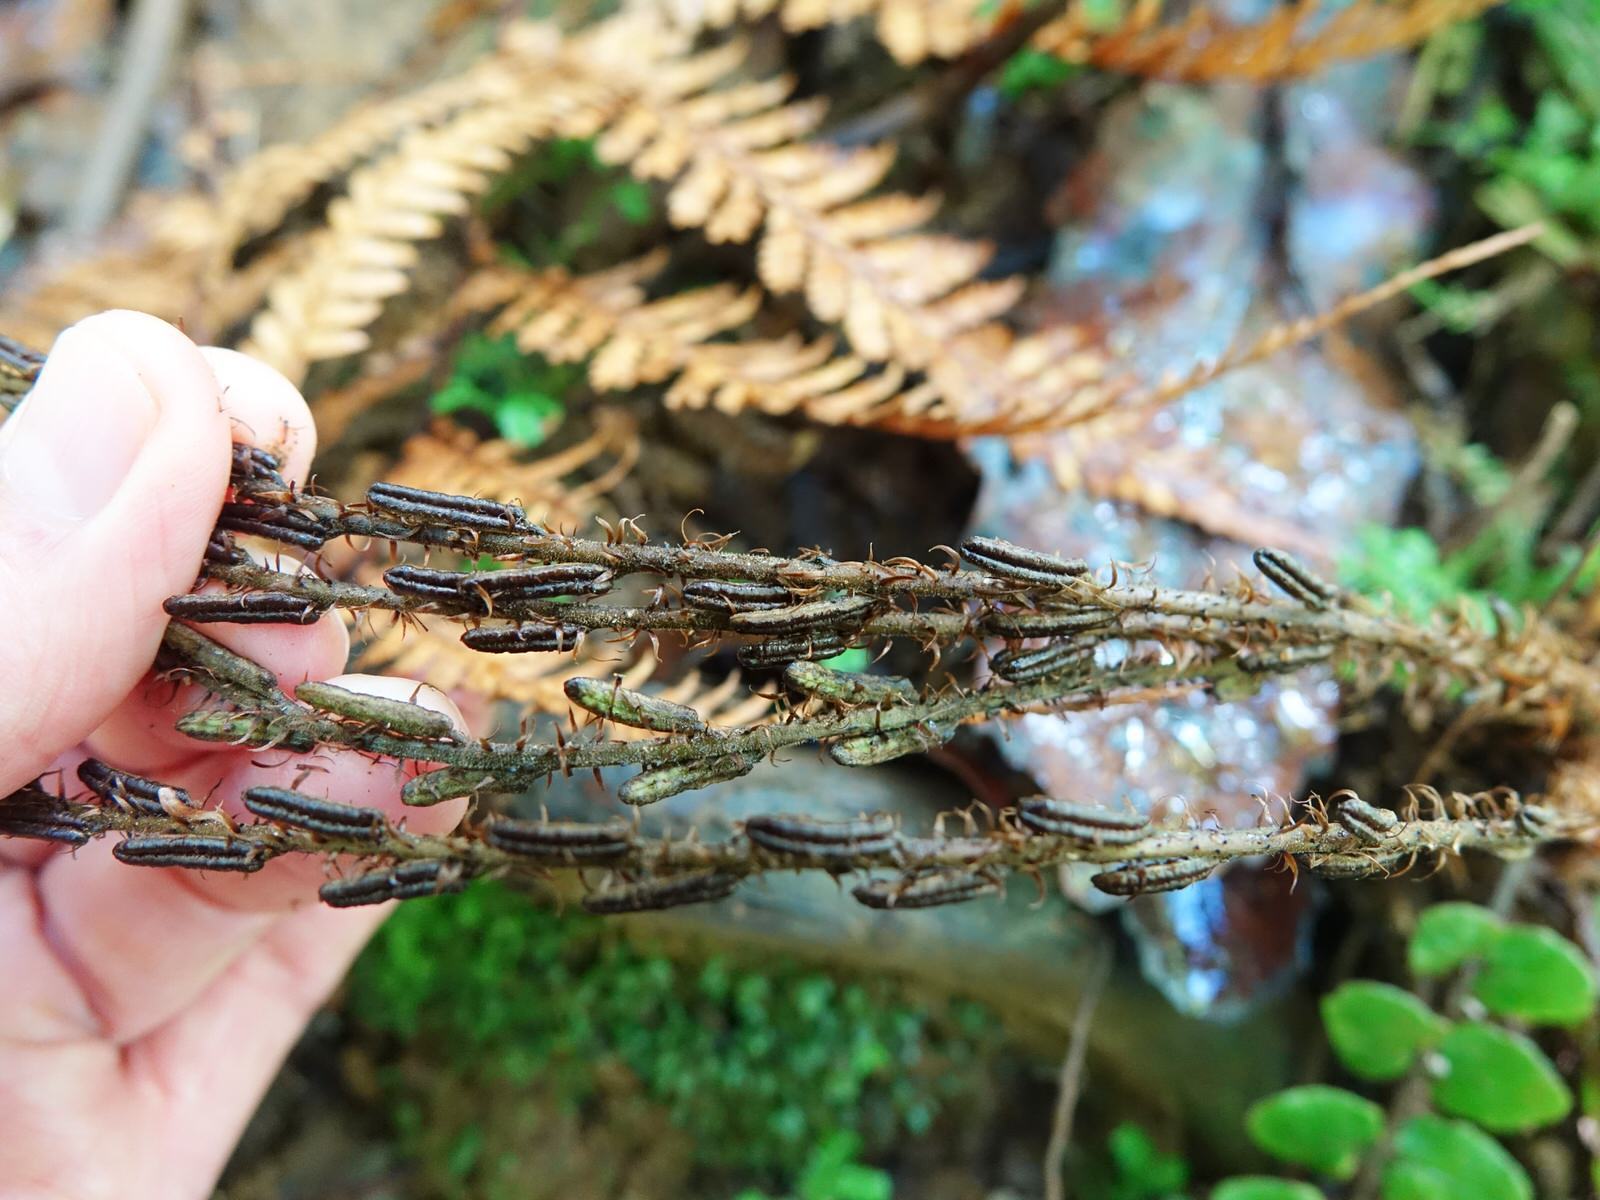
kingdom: Plantae
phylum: Tracheophyta
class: Polypodiopsida
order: Polypodiales
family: Blechnaceae
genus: Cranfillia
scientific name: Cranfillia fluviatilis
